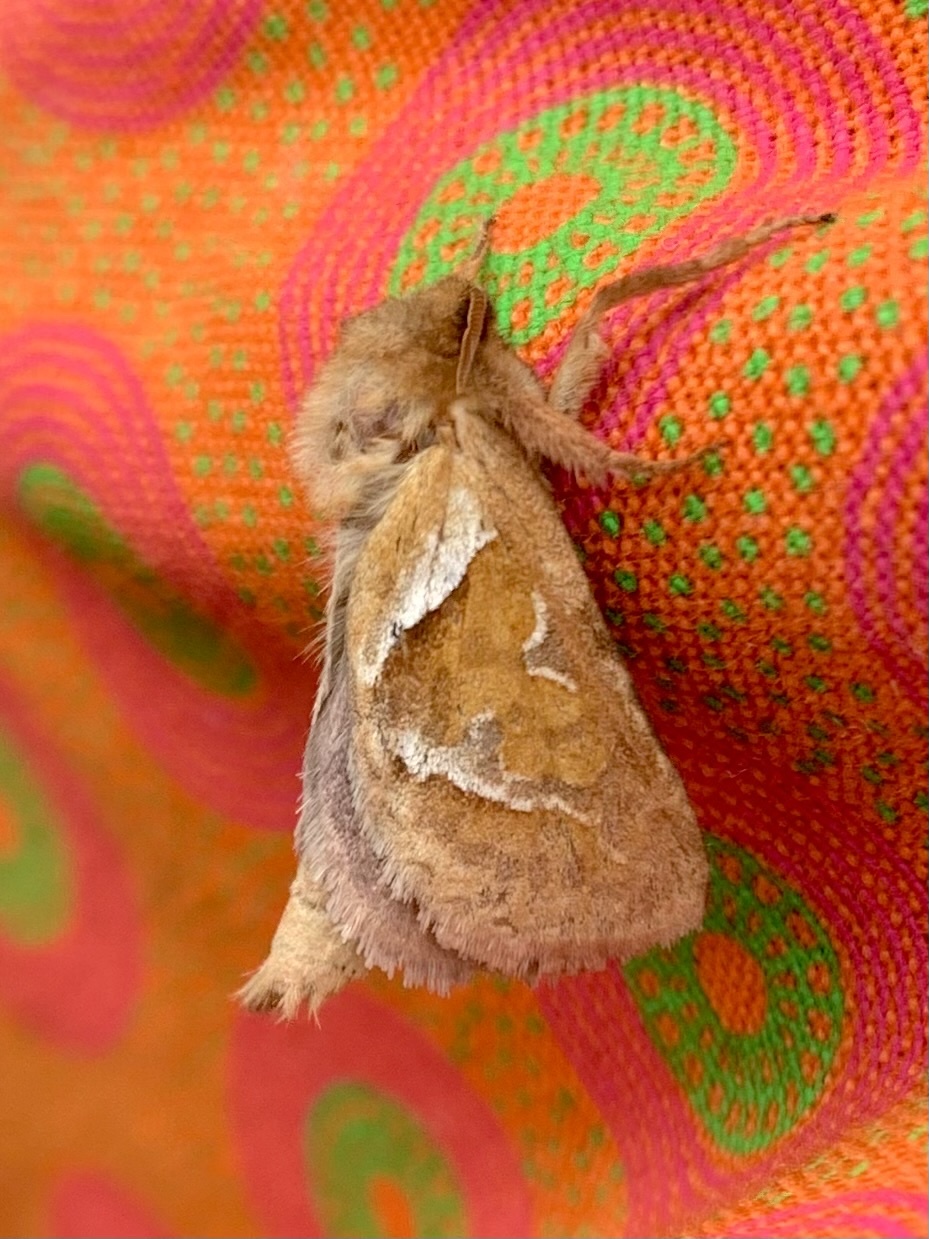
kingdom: Animalia
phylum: Arthropoda
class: Insecta
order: Lepidoptera
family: Hepialidae
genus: Triodia
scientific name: Triodia sylvina
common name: Orange swift
